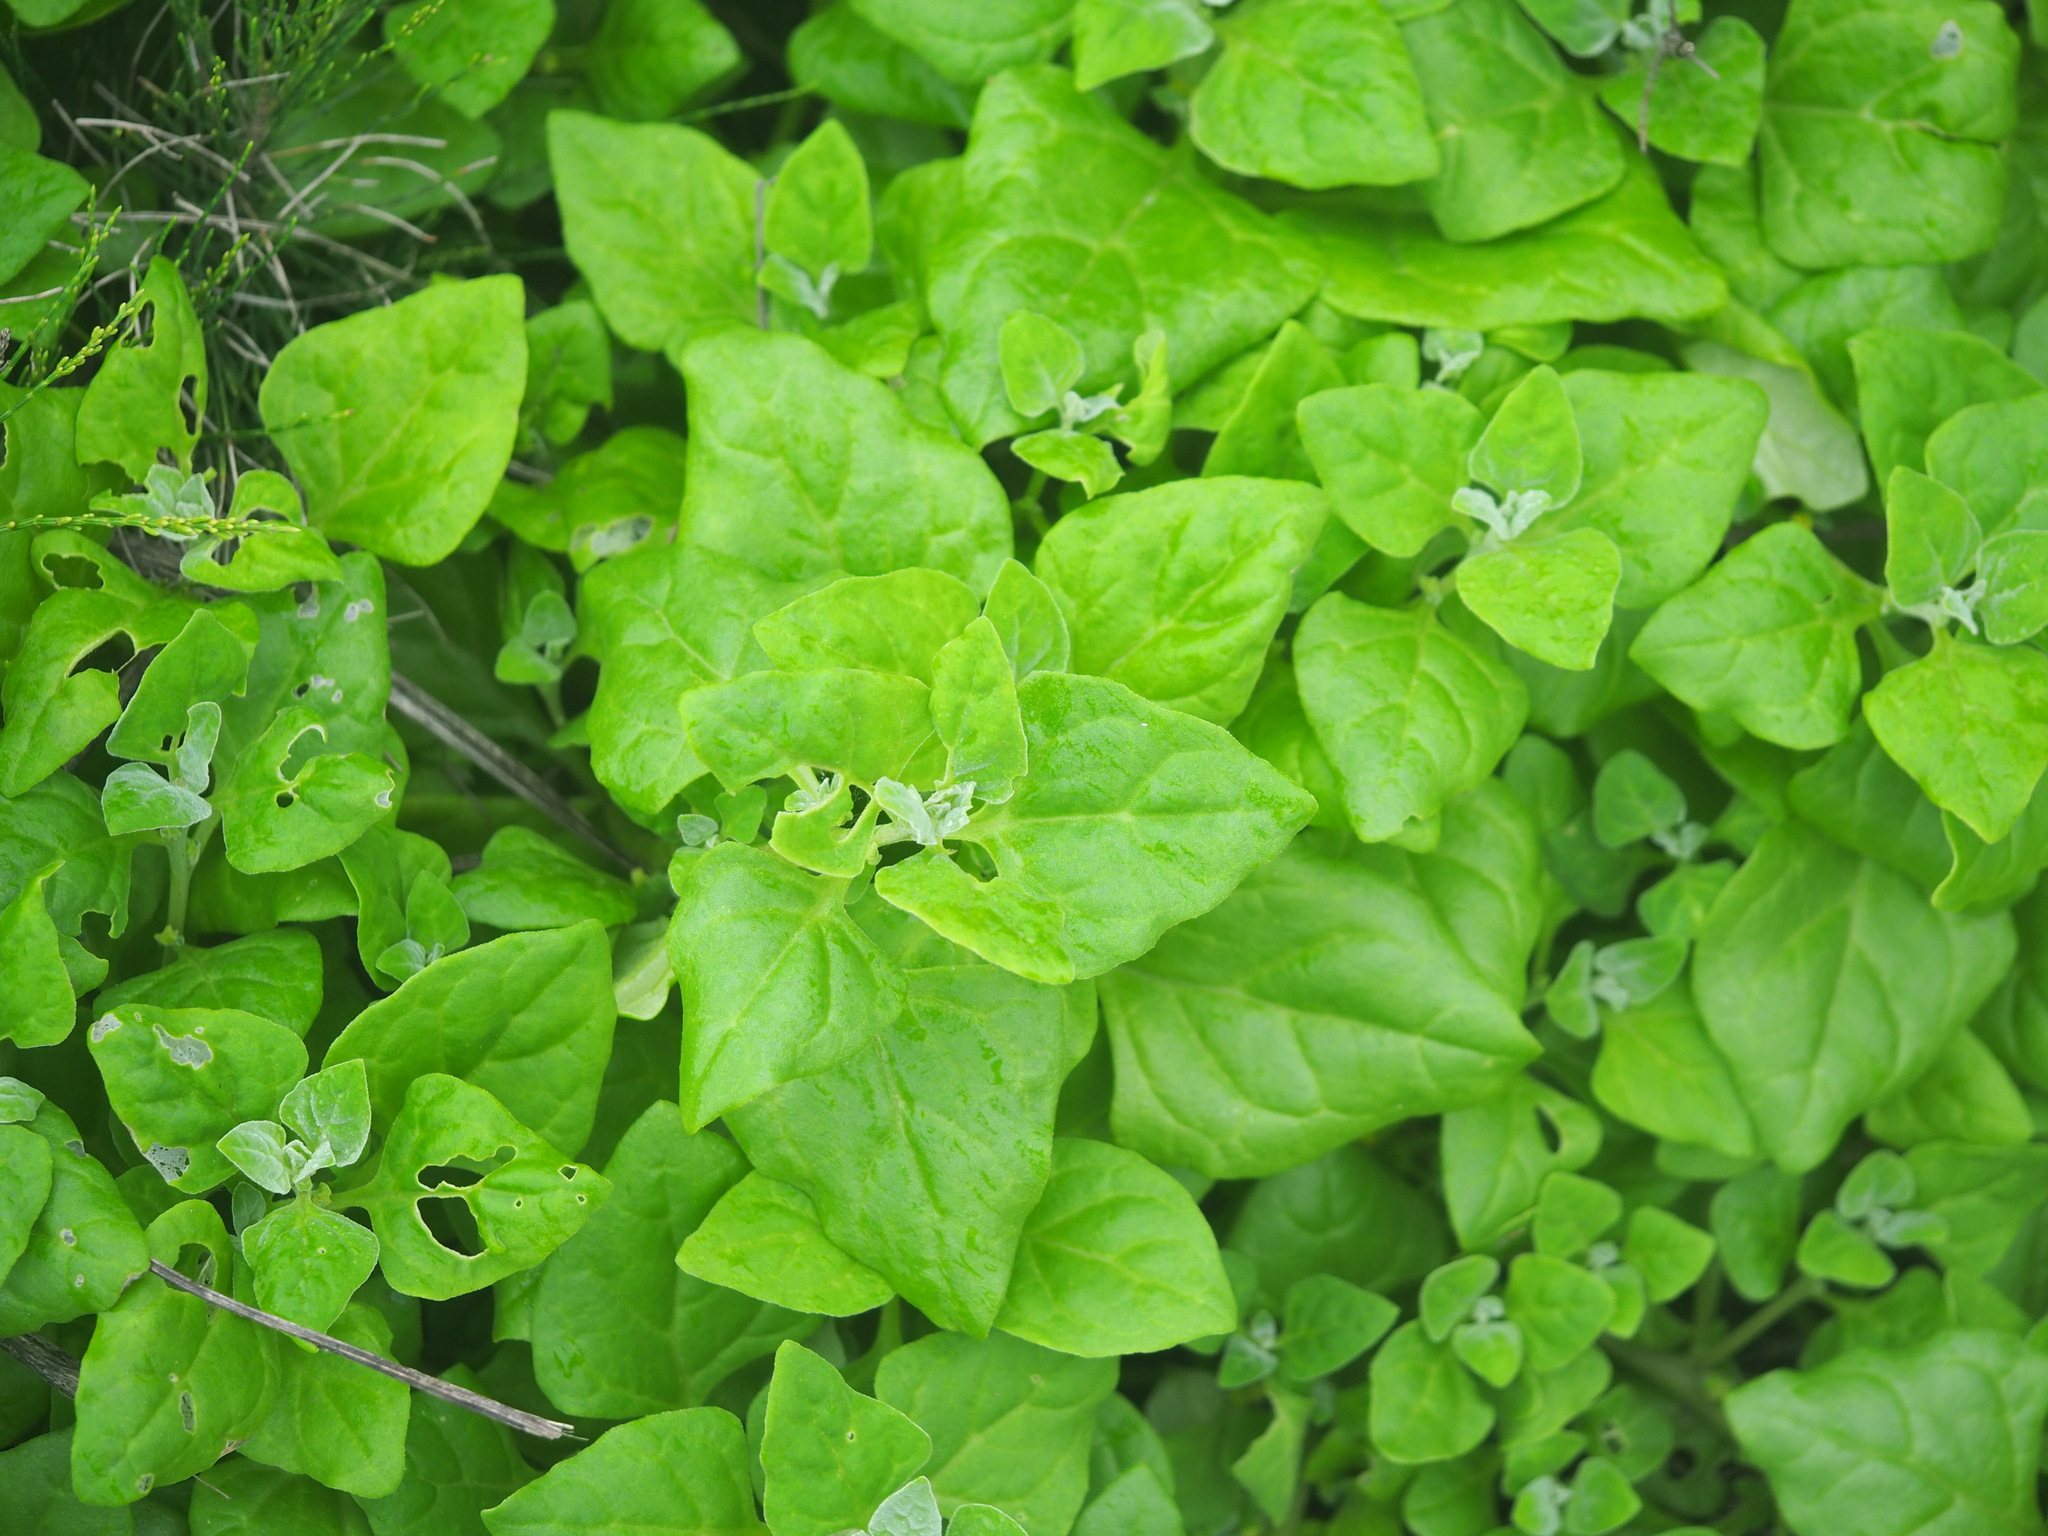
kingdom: Plantae
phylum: Tracheophyta
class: Magnoliopsida
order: Caryophyllales
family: Aizoaceae
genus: Tetragonia
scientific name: Tetragonia tetragonoides
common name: New zealand-spinach
